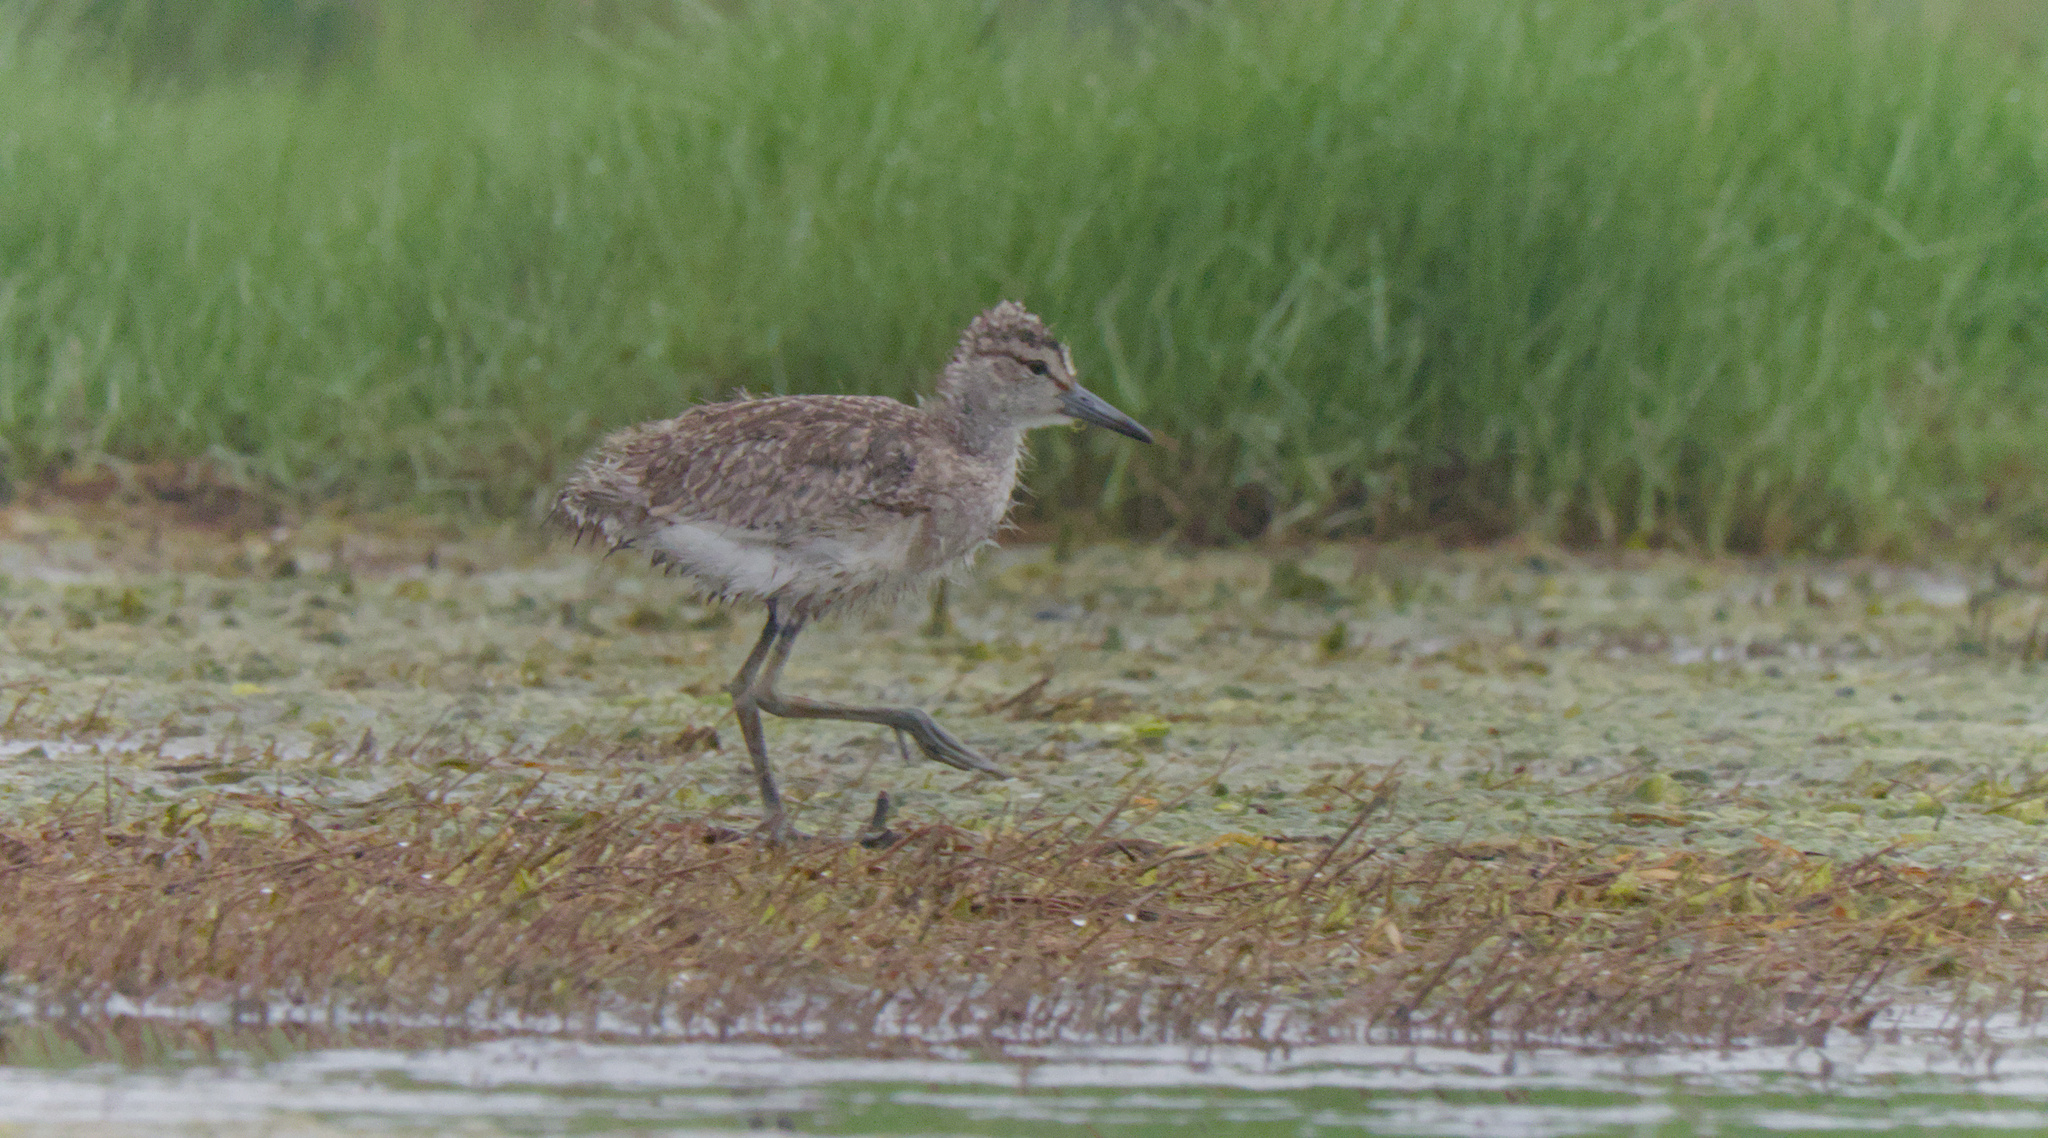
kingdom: Animalia
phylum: Chordata
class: Aves
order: Charadriiformes
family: Scolopacidae
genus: Tringa
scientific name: Tringa semipalmata
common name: Willet
